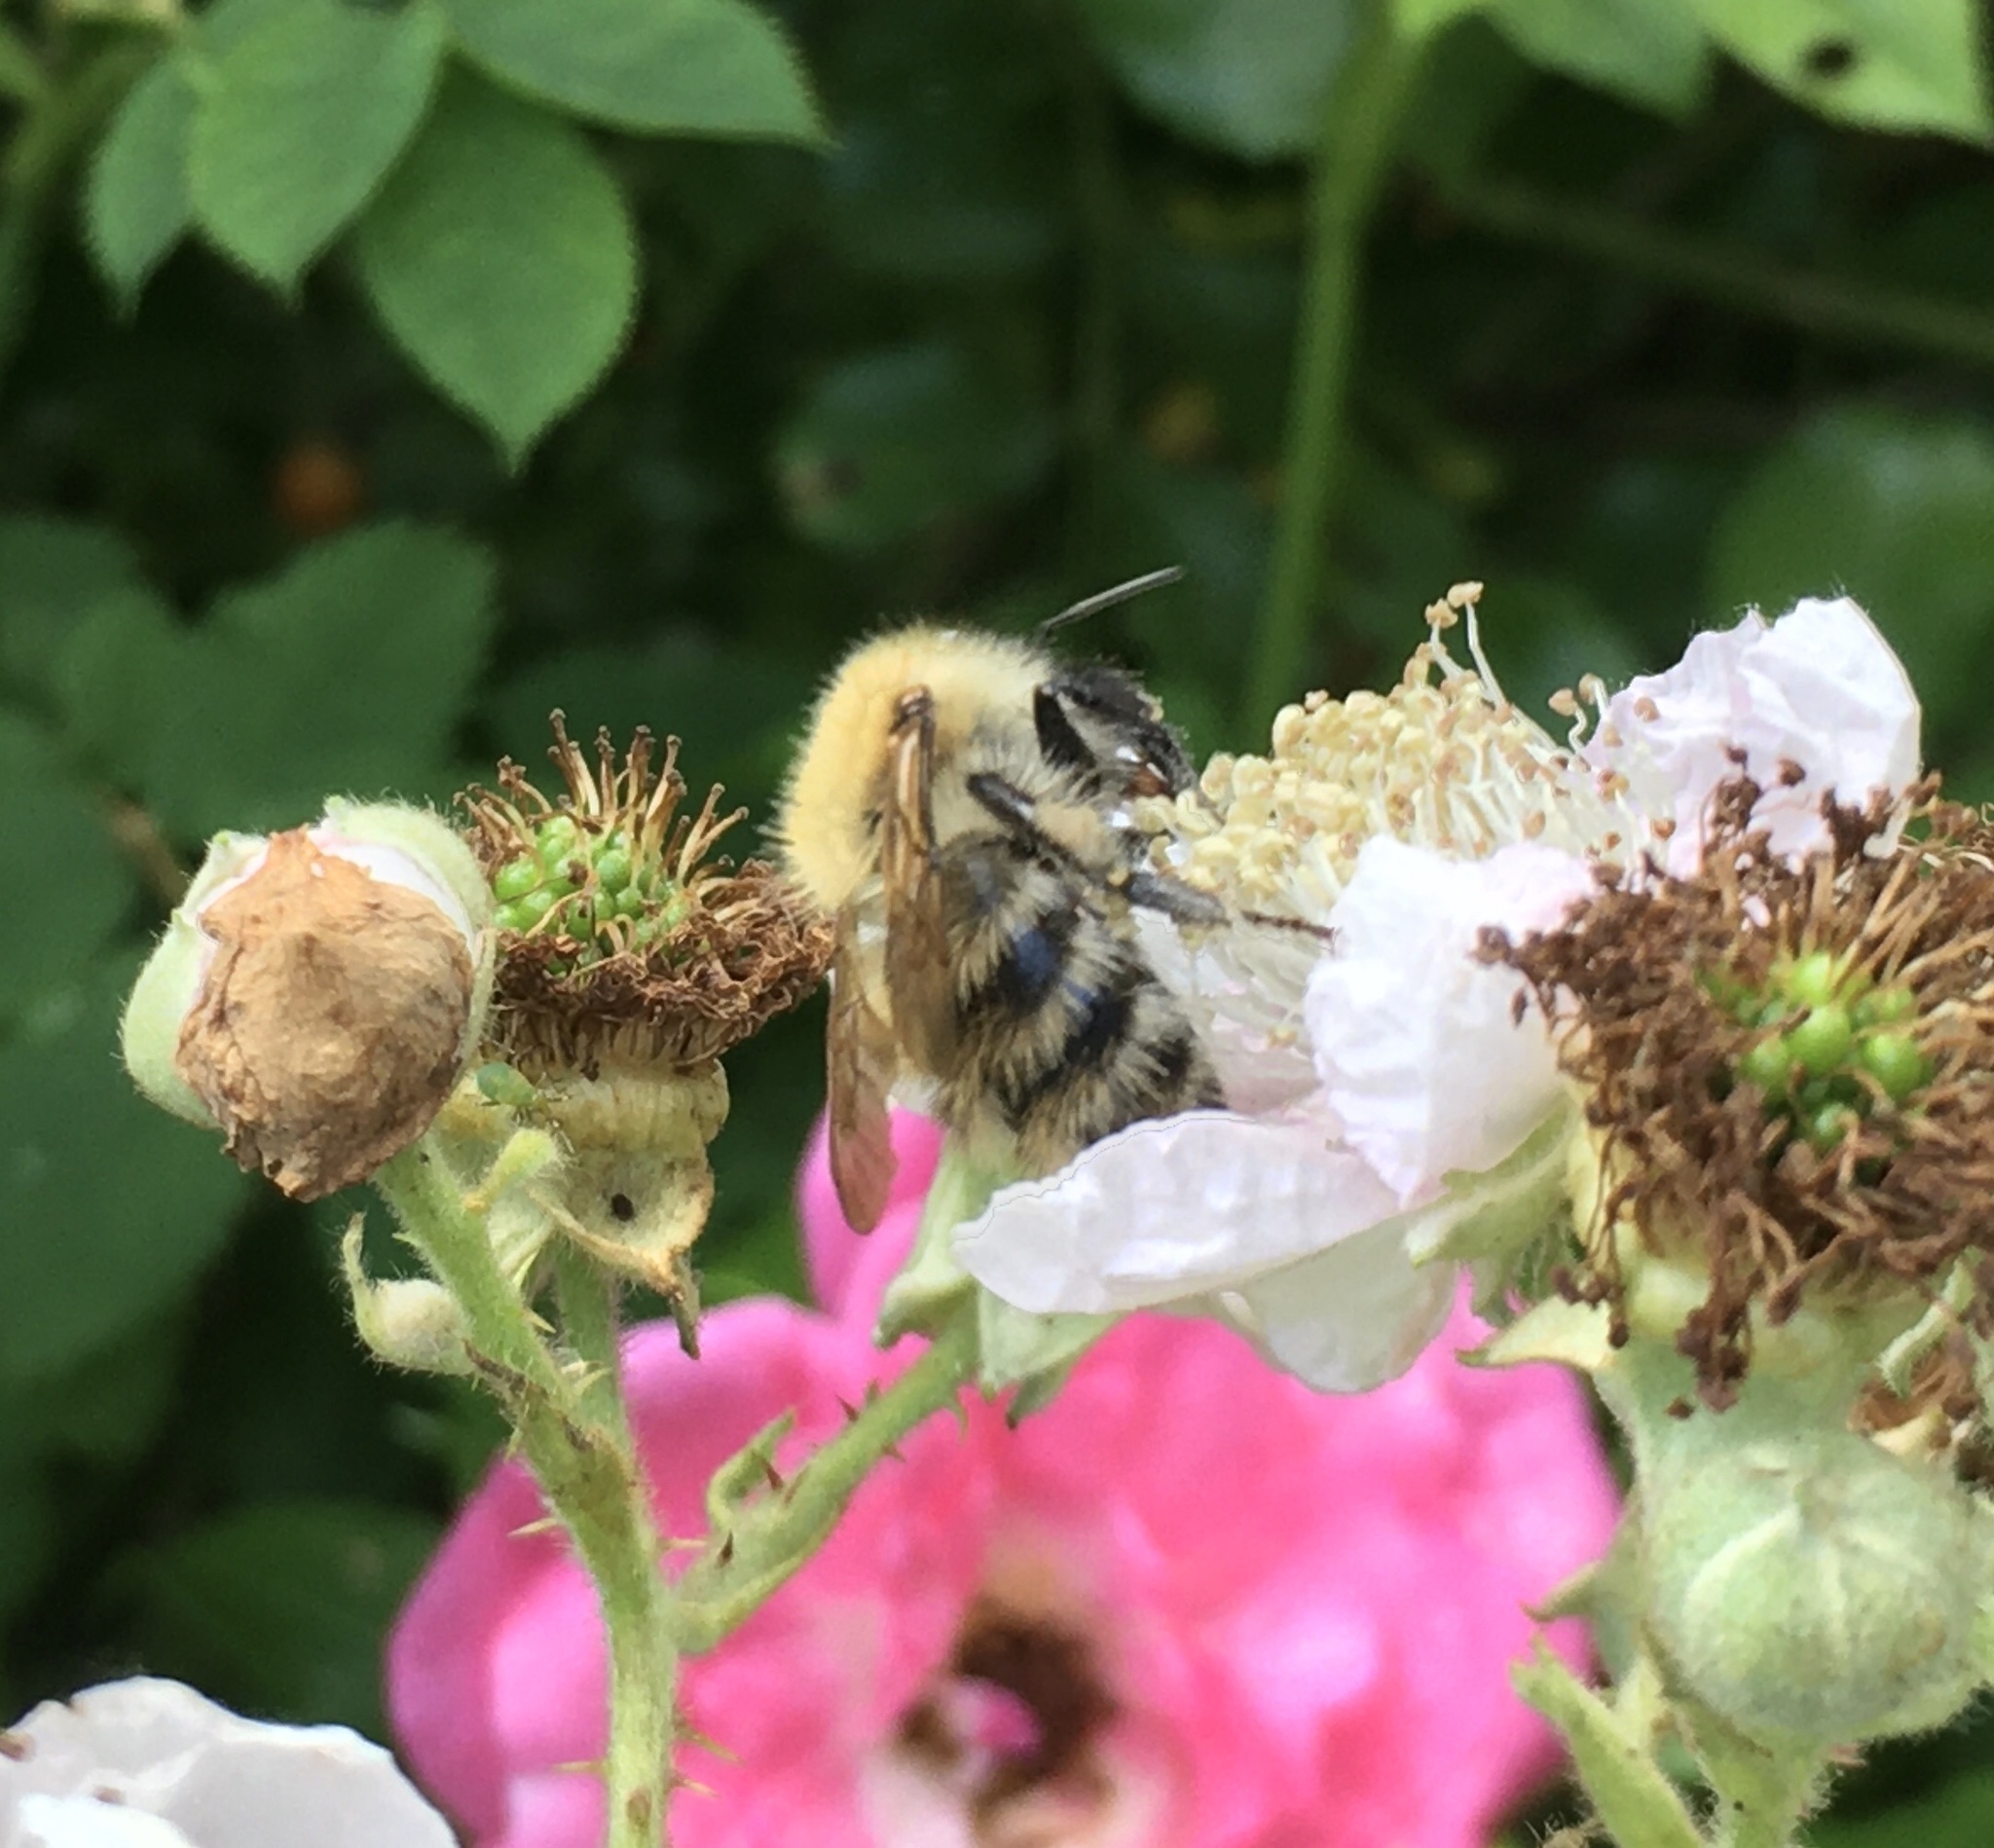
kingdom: Animalia
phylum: Arthropoda
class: Insecta
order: Hymenoptera
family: Apidae
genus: Bombus
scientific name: Bombus pascuorum
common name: Common carder bee
